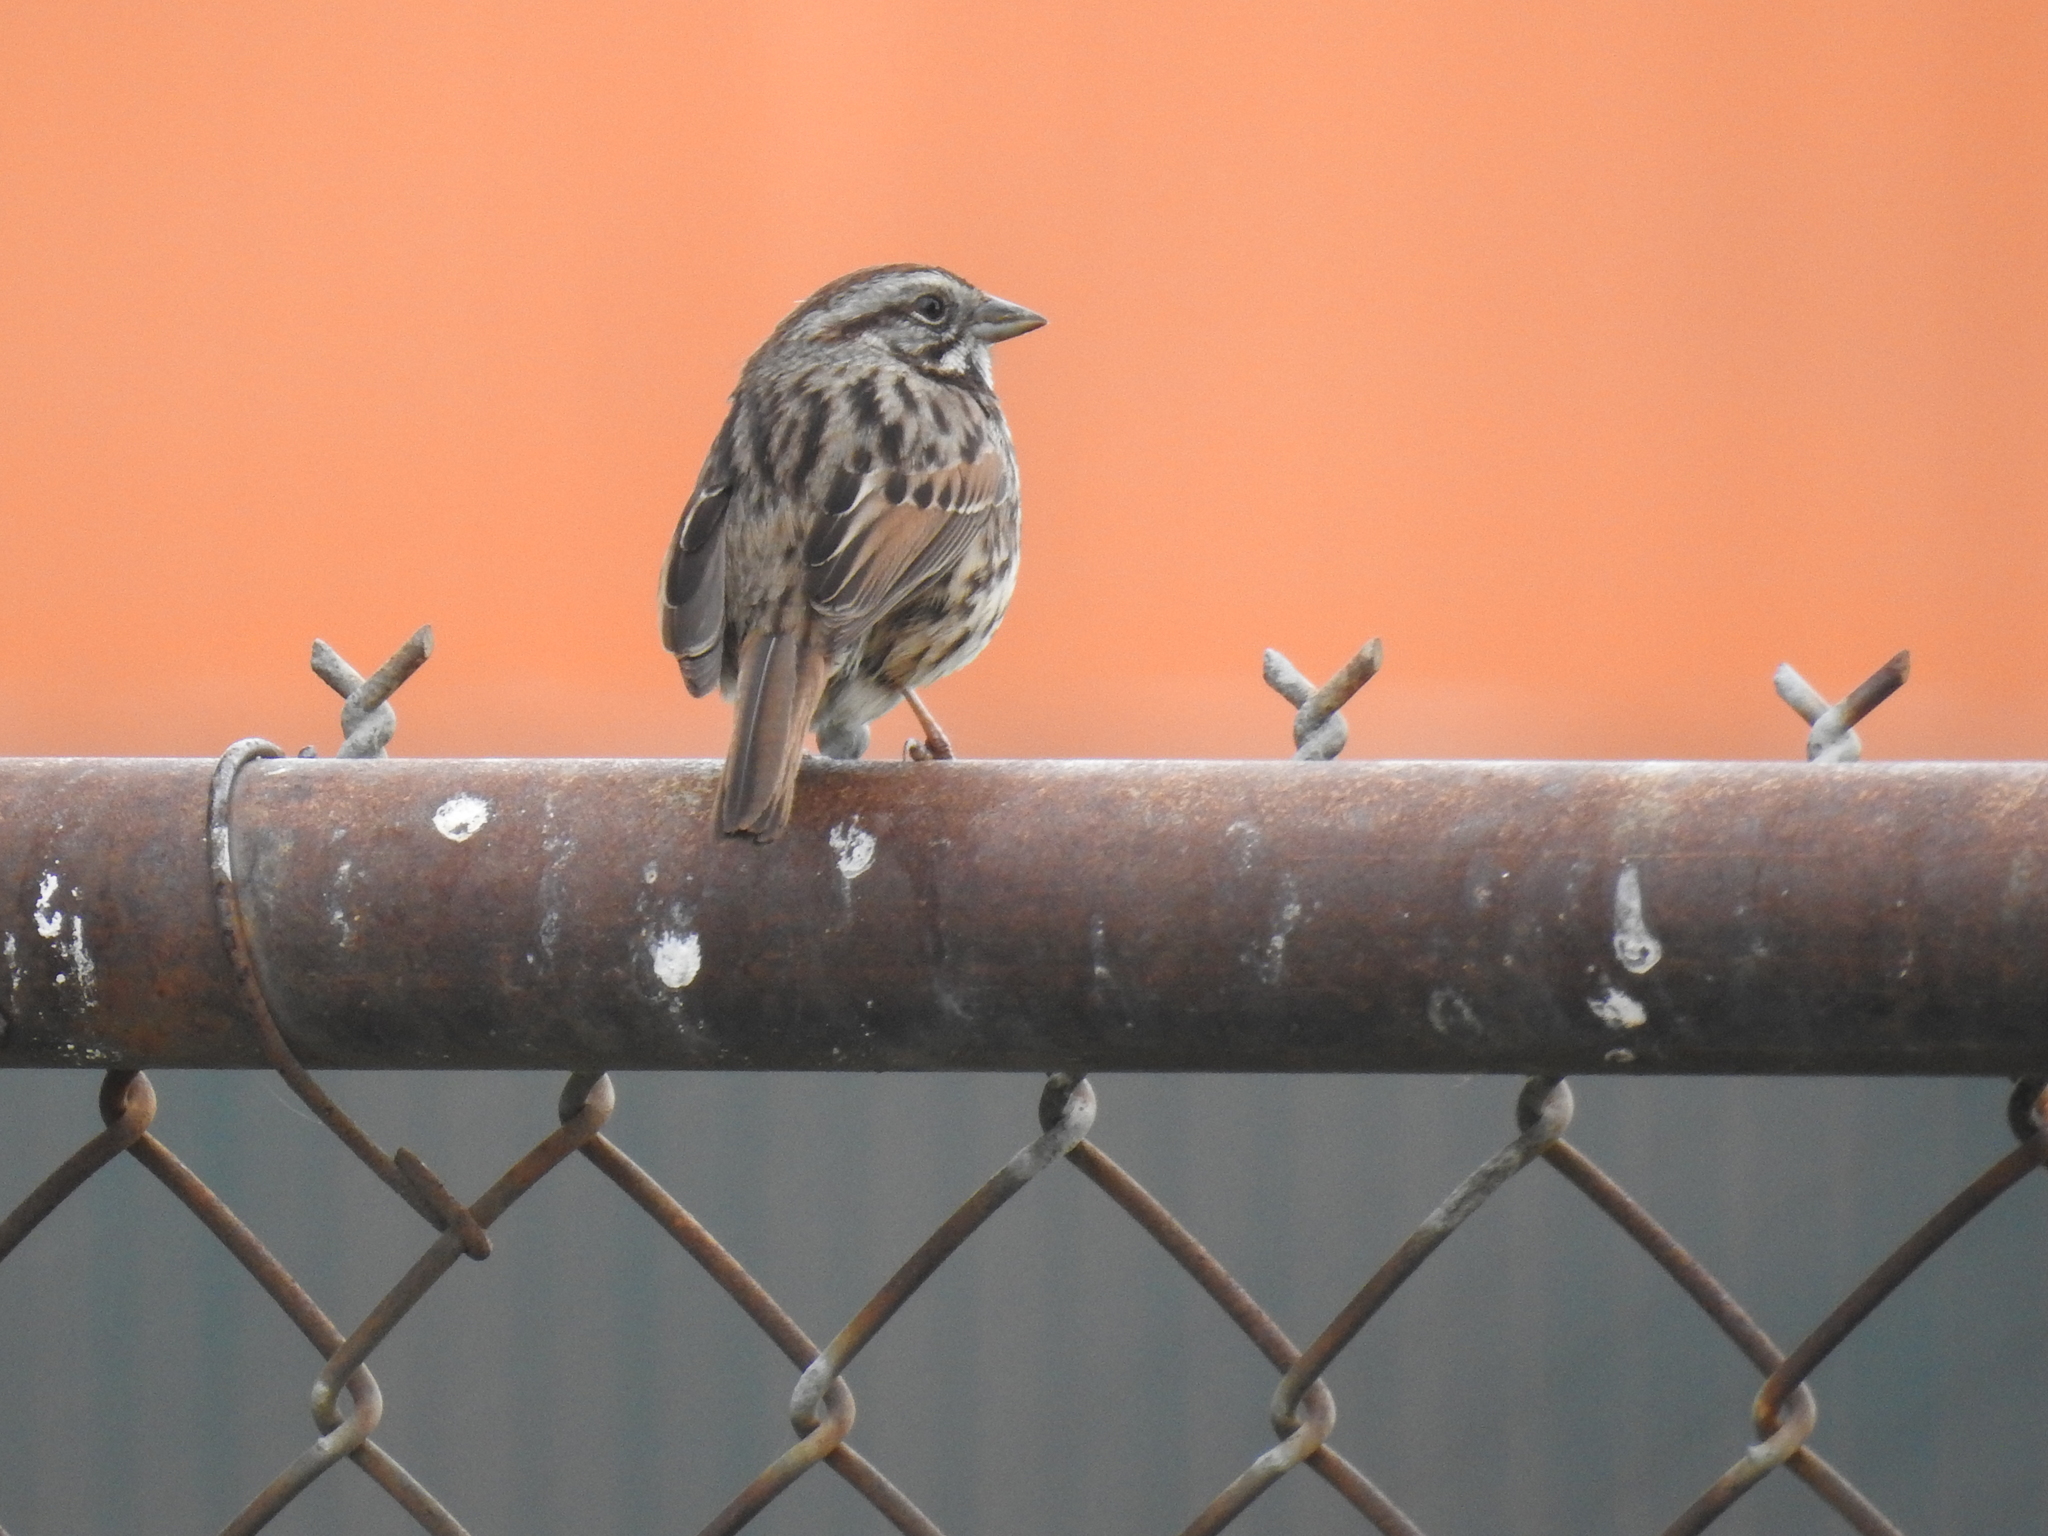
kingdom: Animalia
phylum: Chordata
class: Aves
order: Passeriformes
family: Passerellidae
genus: Melospiza
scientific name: Melospiza melodia
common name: Song sparrow
